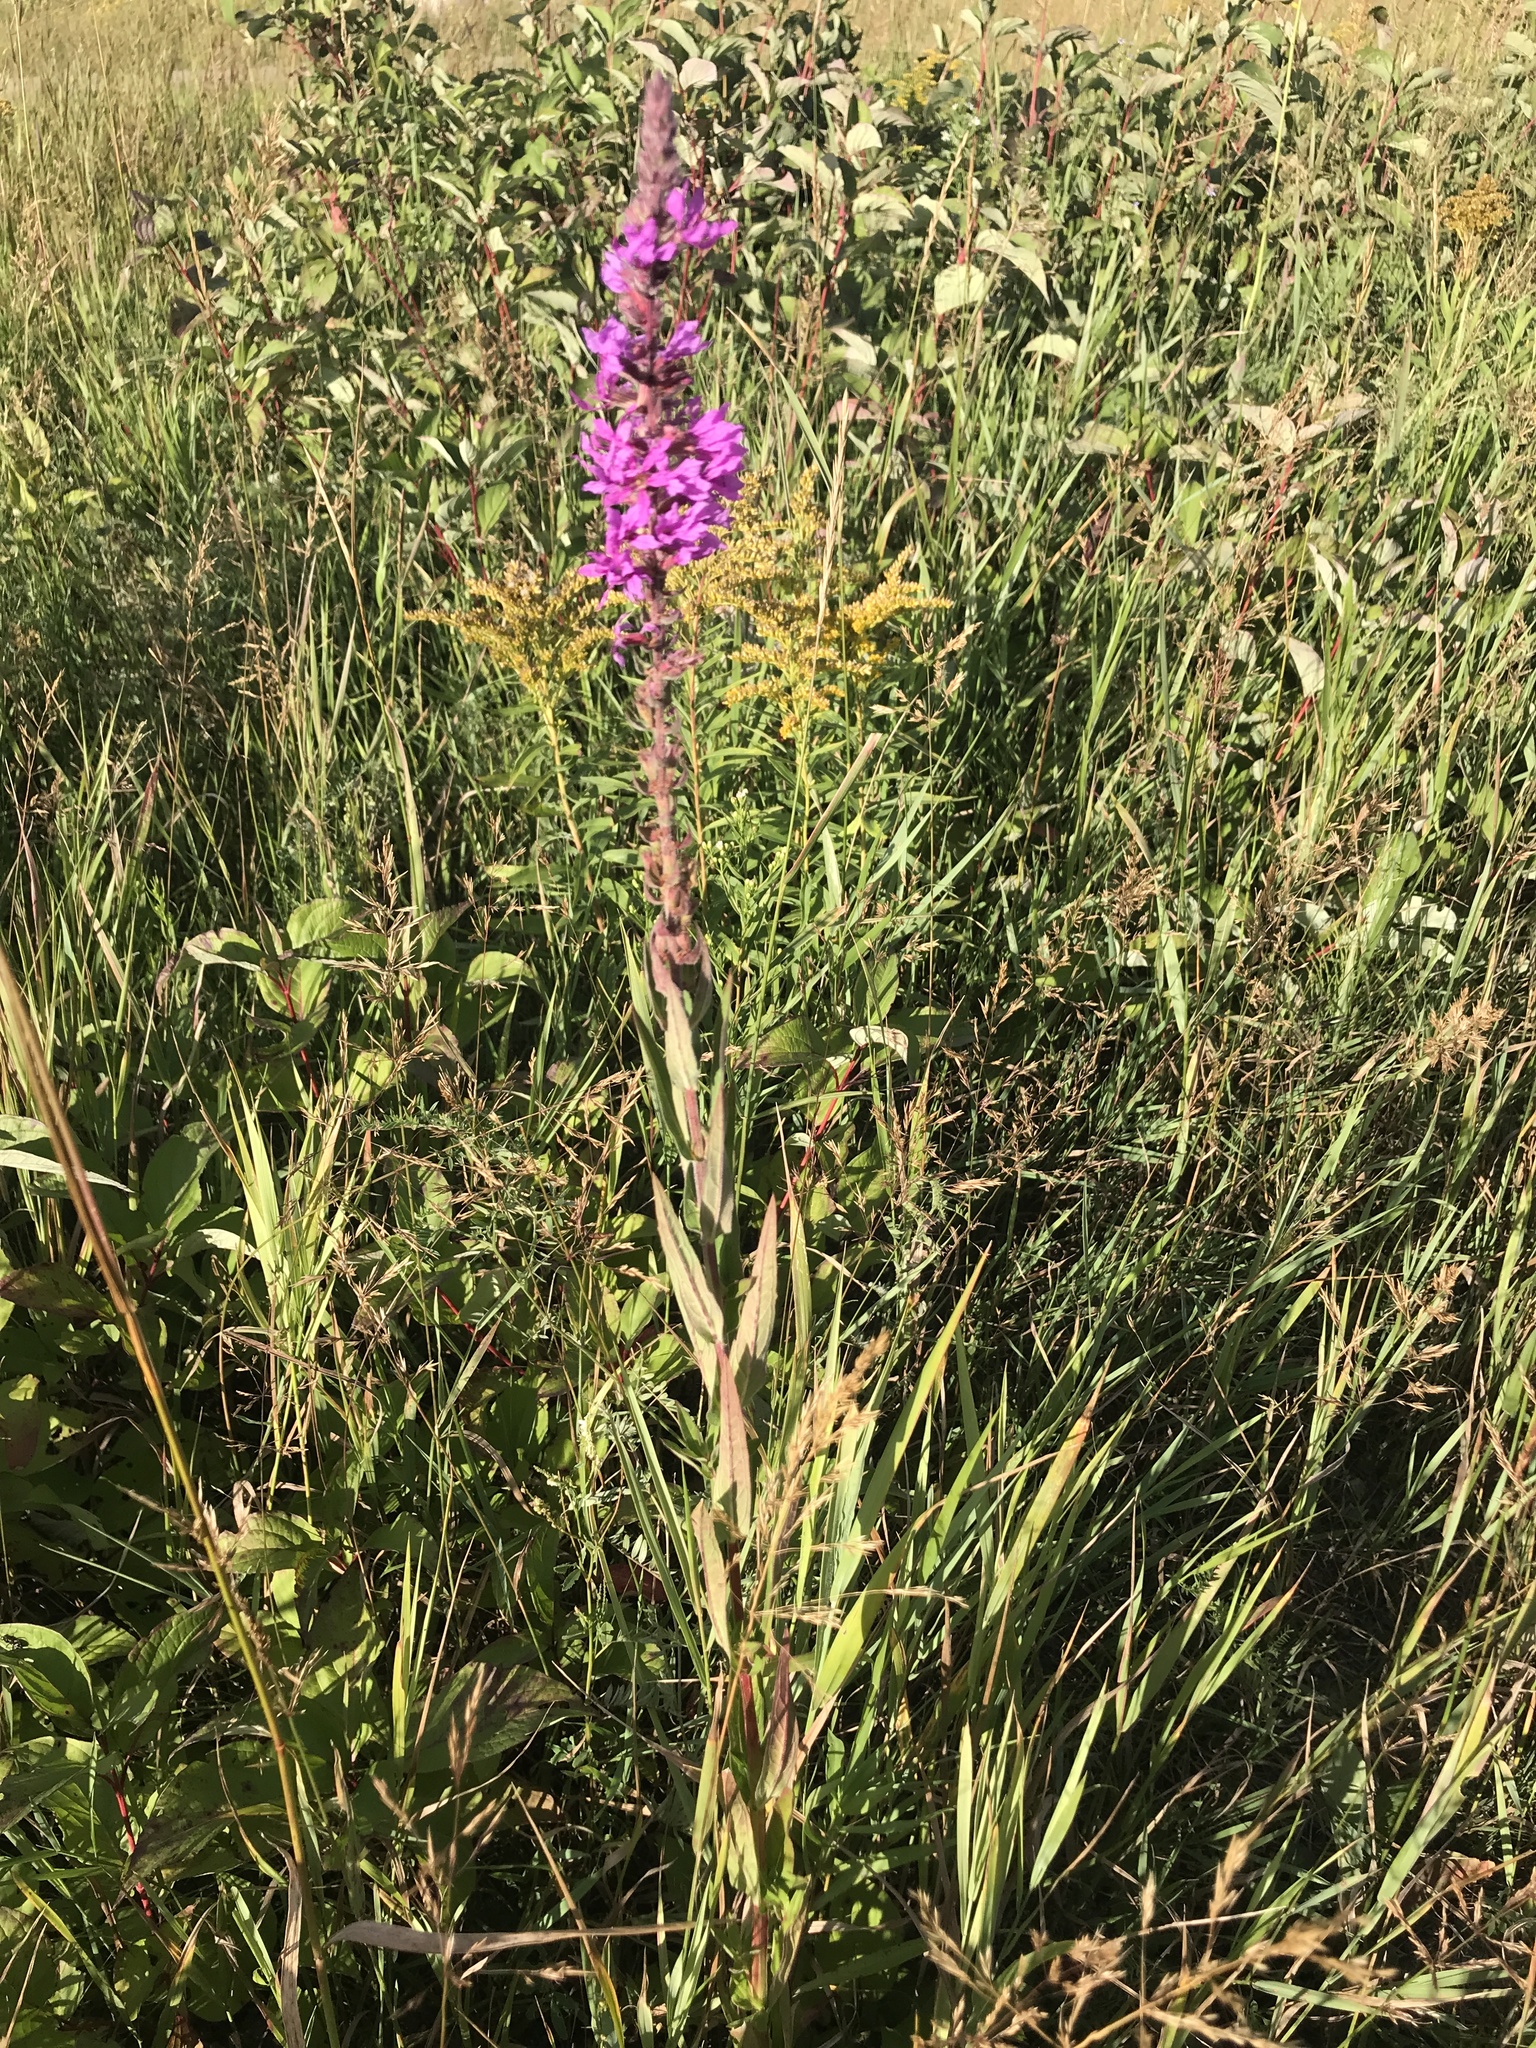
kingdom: Plantae
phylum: Tracheophyta
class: Magnoliopsida
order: Myrtales
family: Lythraceae
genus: Lythrum
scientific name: Lythrum salicaria
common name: Purple loosestrife
